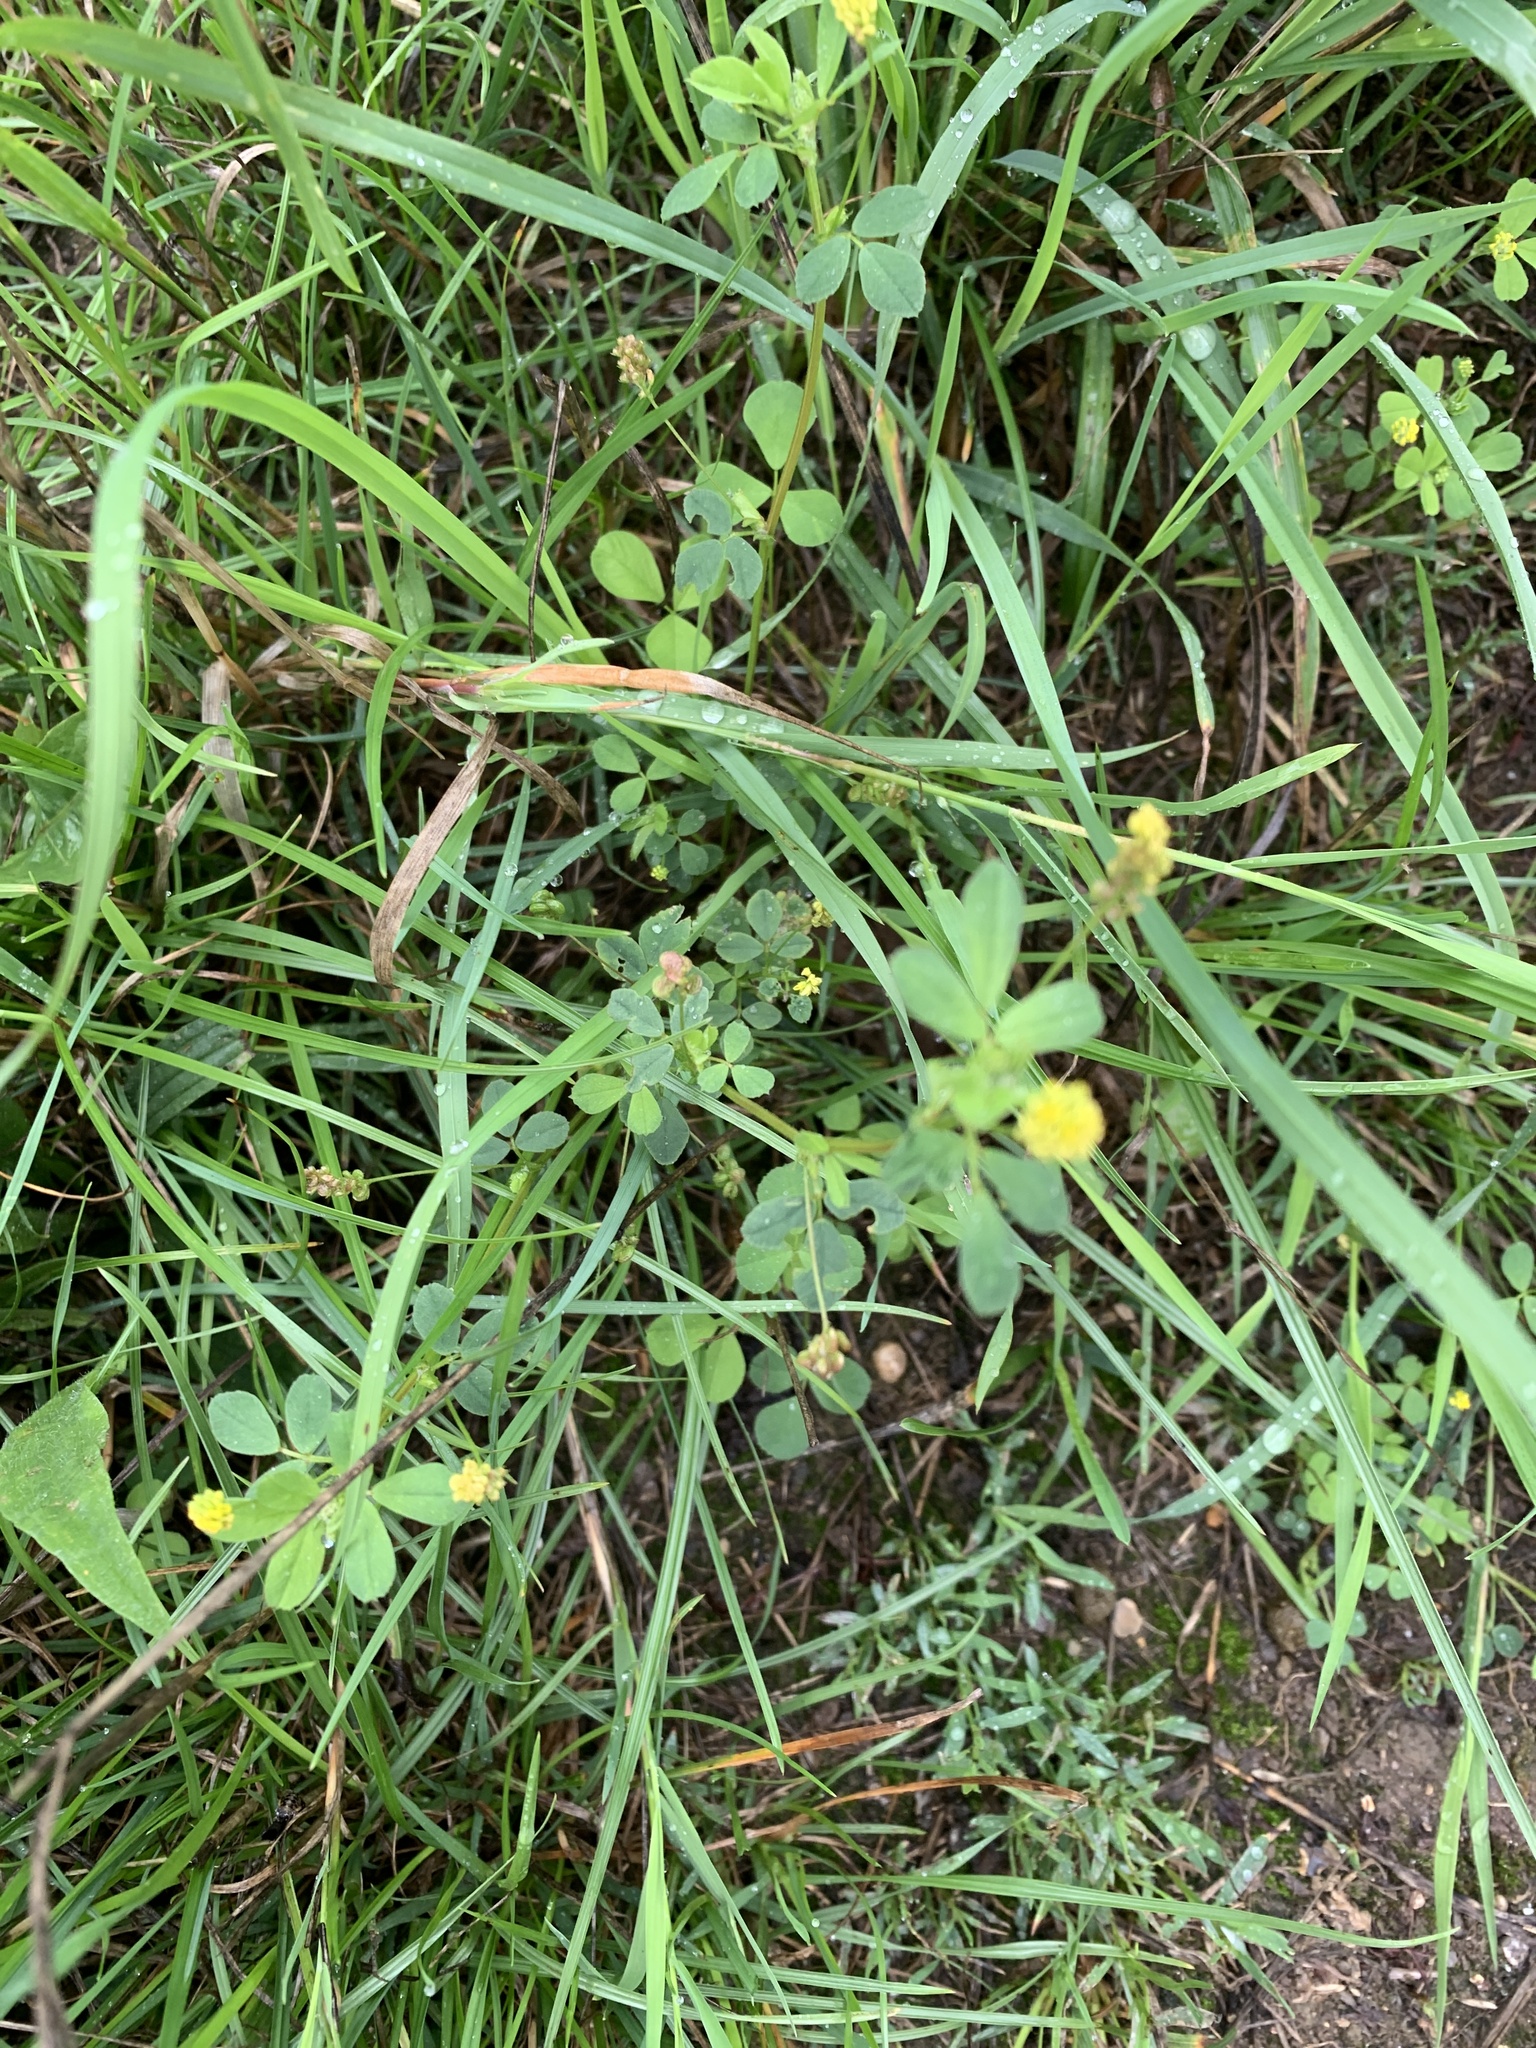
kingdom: Plantae
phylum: Tracheophyta
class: Magnoliopsida
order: Fabales
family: Fabaceae
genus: Medicago
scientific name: Medicago lupulina
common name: Black medick
